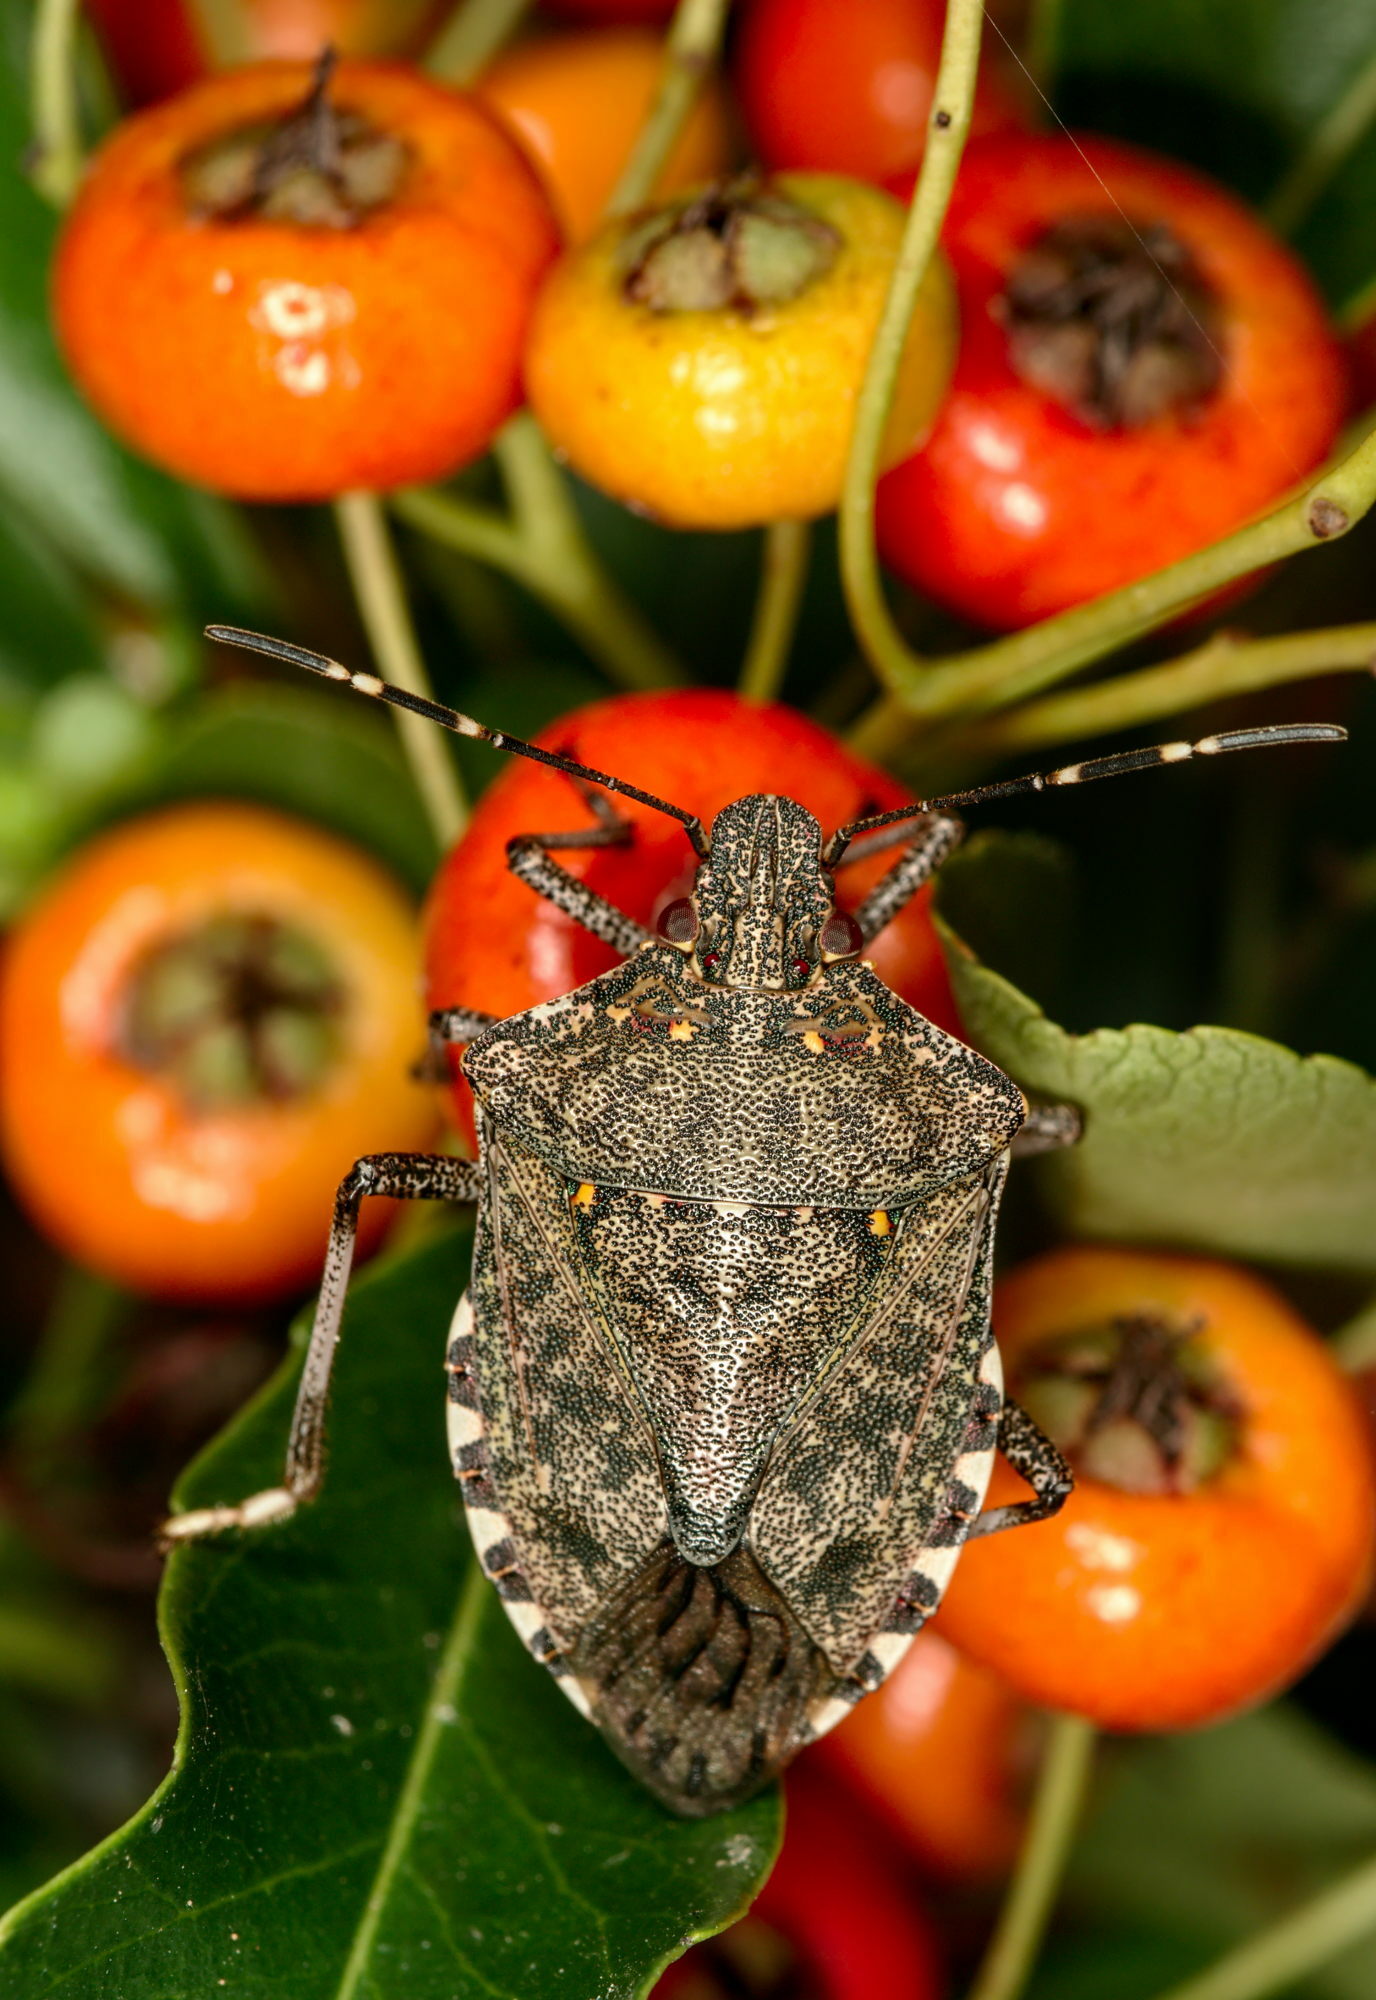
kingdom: Animalia
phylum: Arthropoda
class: Insecta
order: Hemiptera
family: Pentatomidae
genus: Halyomorpha
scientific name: Halyomorpha halys
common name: Brown marmorated stink bug
